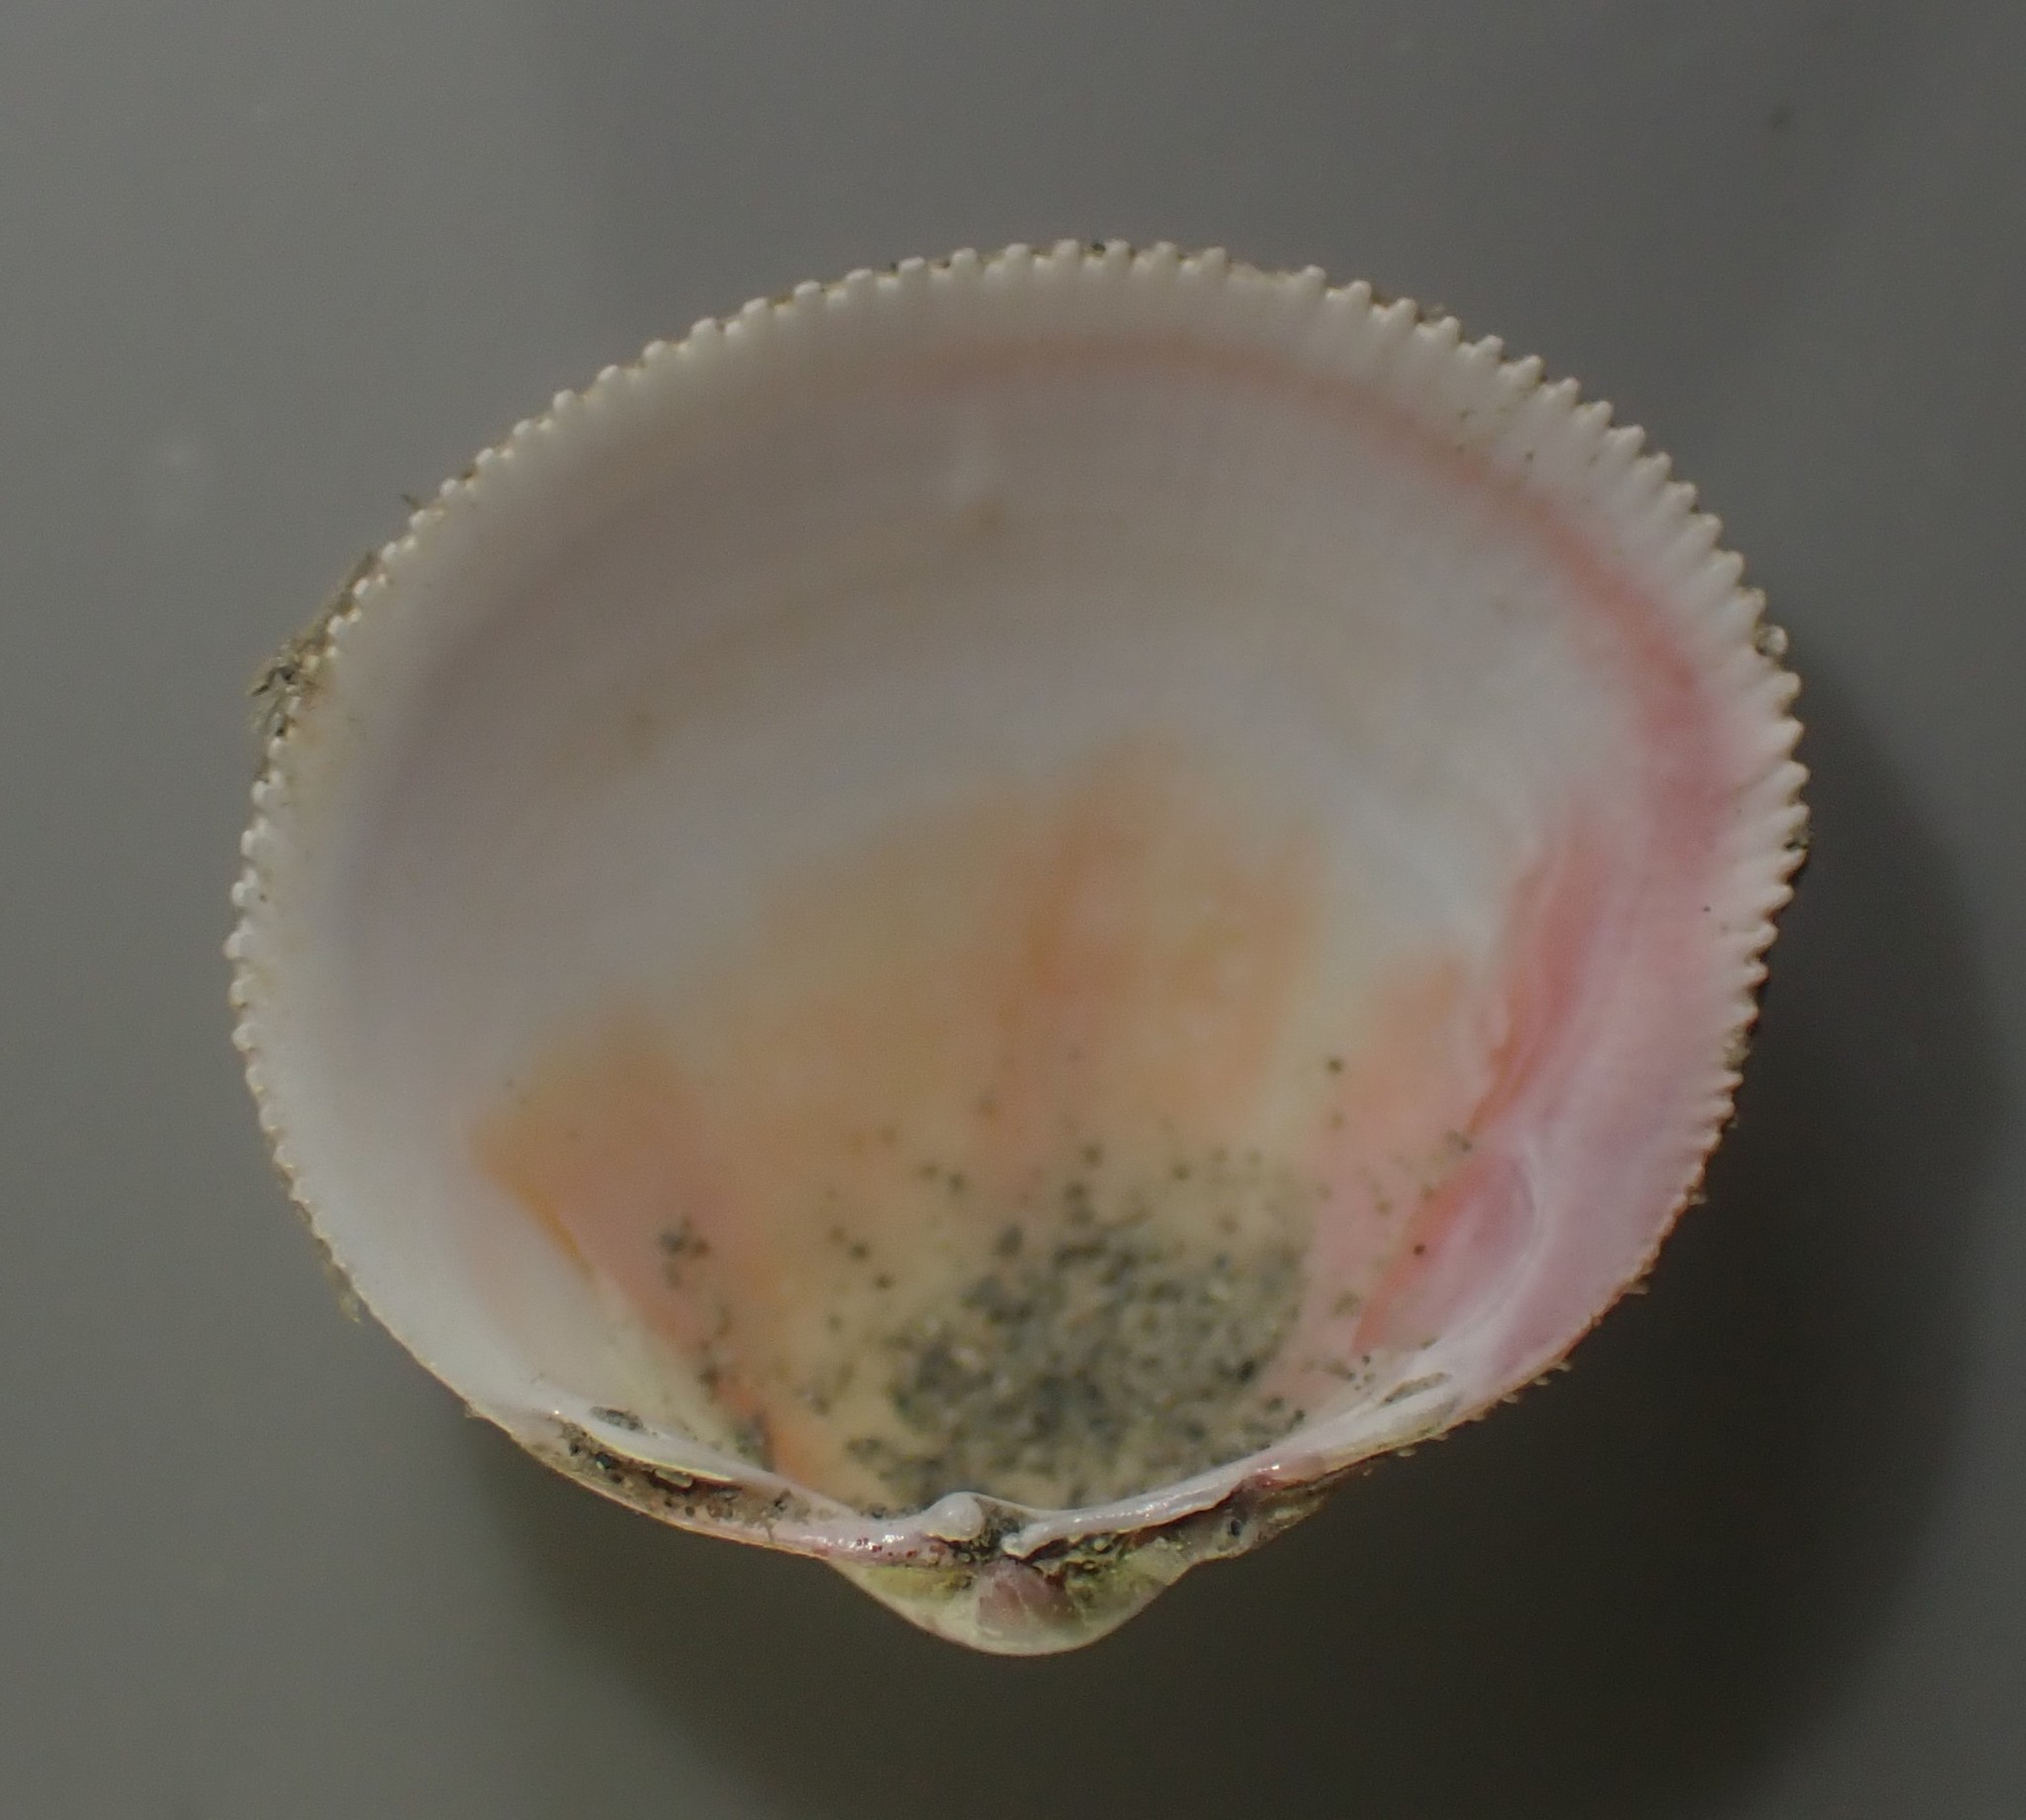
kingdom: Animalia
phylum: Mollusca
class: Bivalvia
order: Cardiida
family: Cardiidae
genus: Pratulum
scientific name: Pratulum pulchellum
